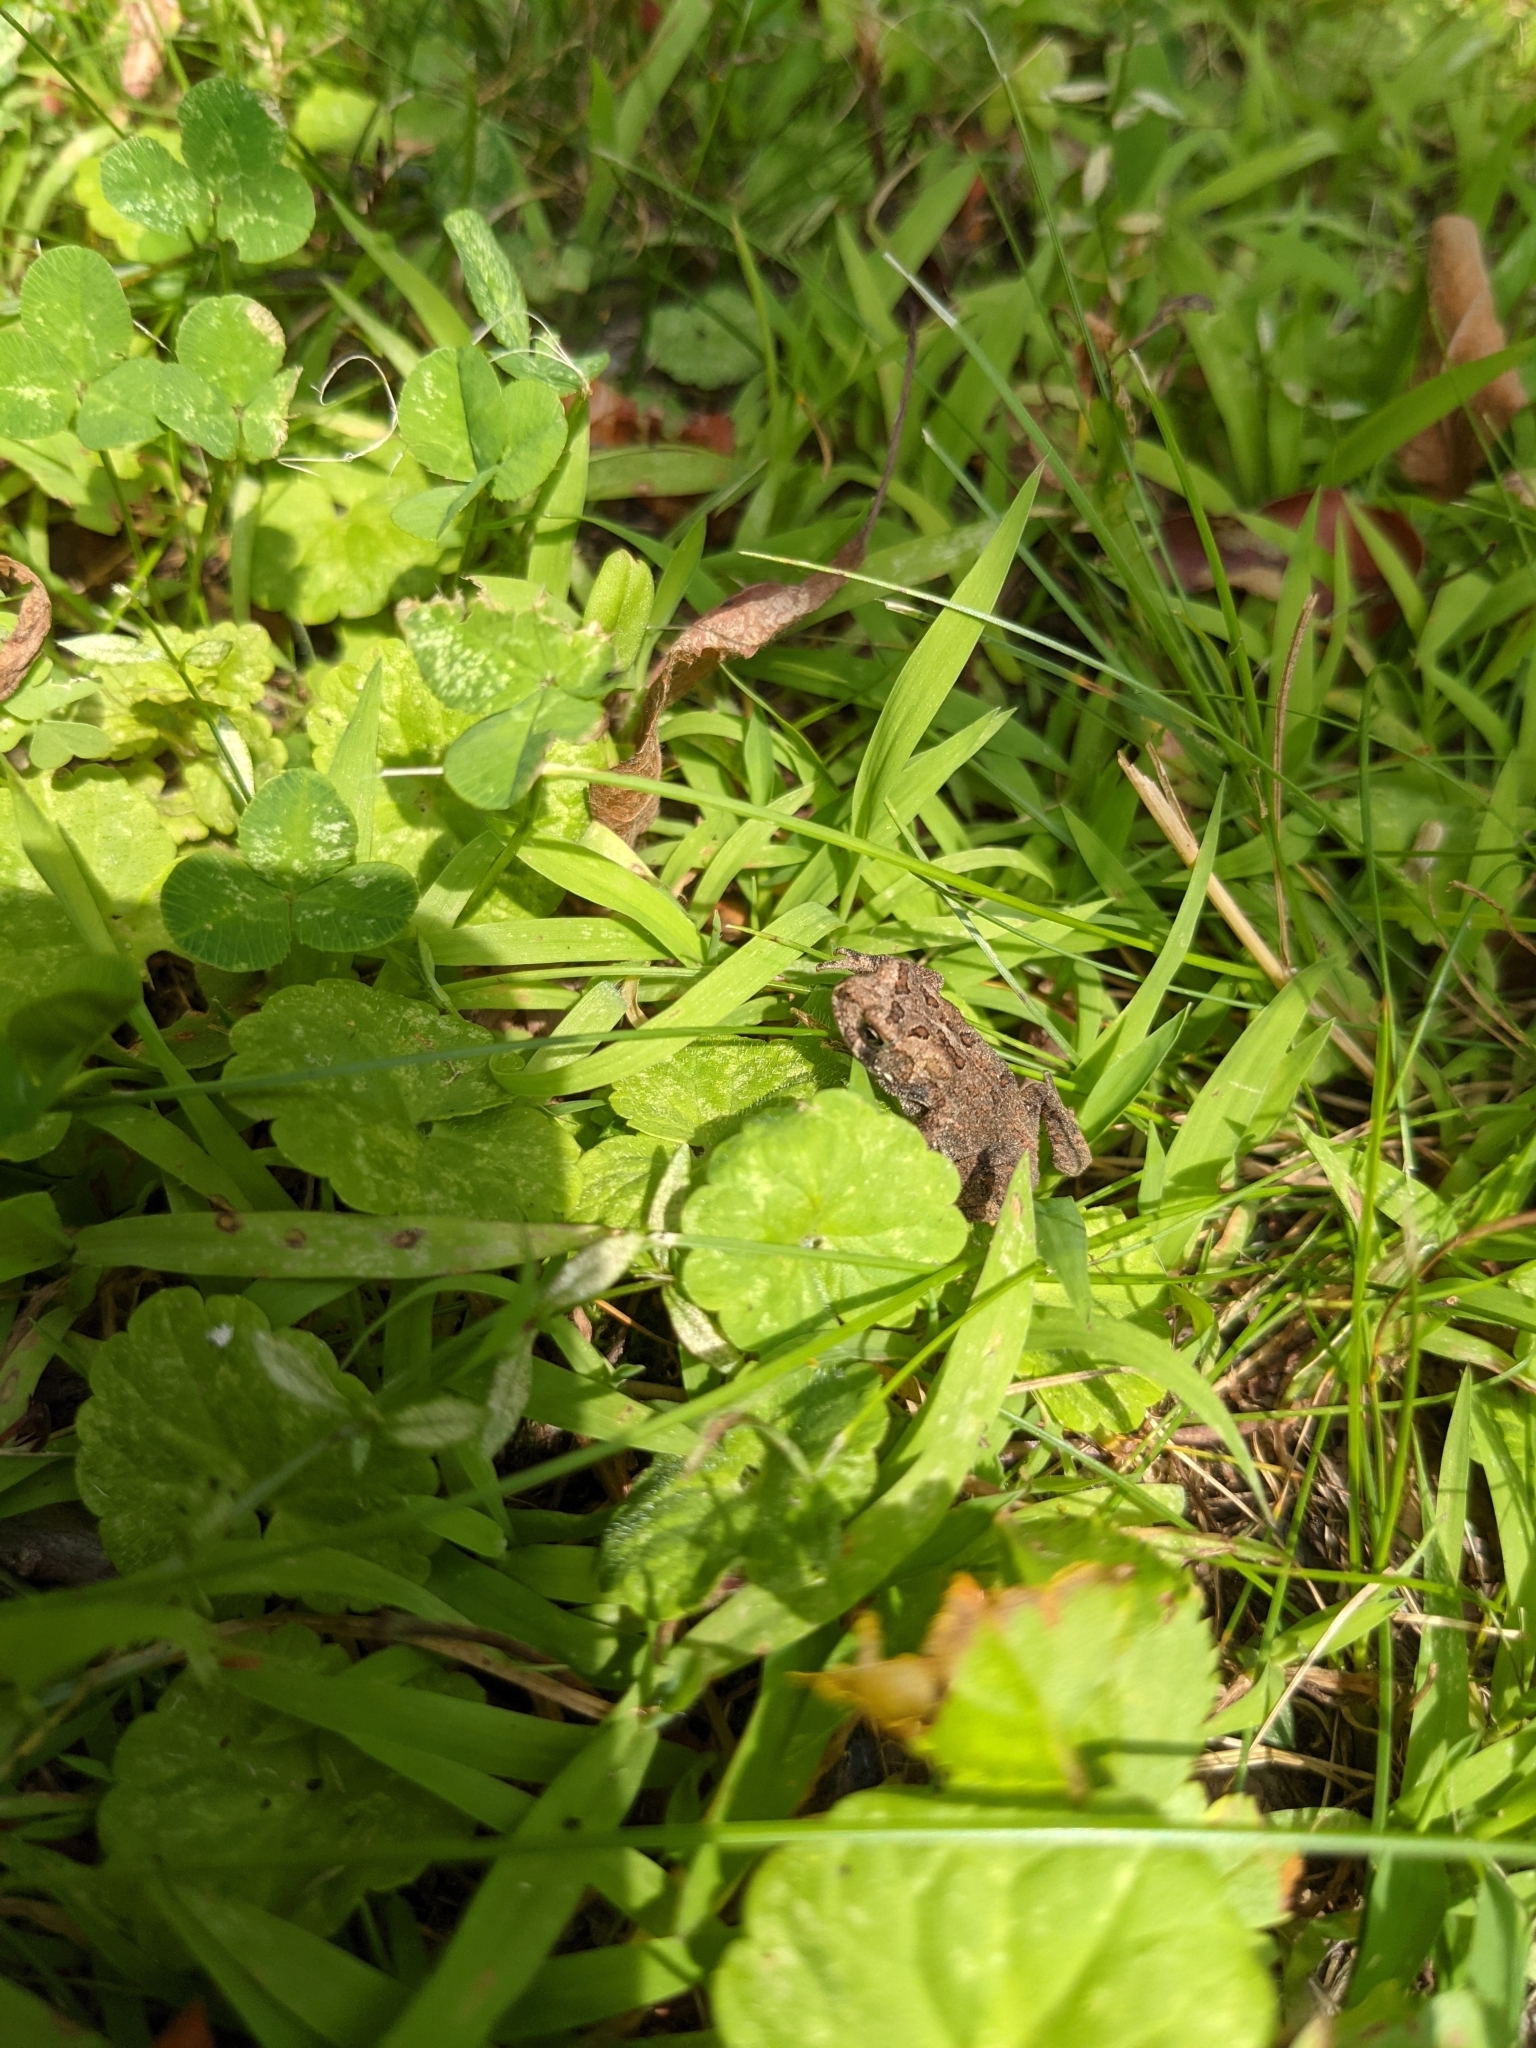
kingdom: Animalia
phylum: Chordata
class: Amphibia
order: Anura
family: Bufonidae
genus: Anaxyrus
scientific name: Anaxyrus americanus
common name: American toad
